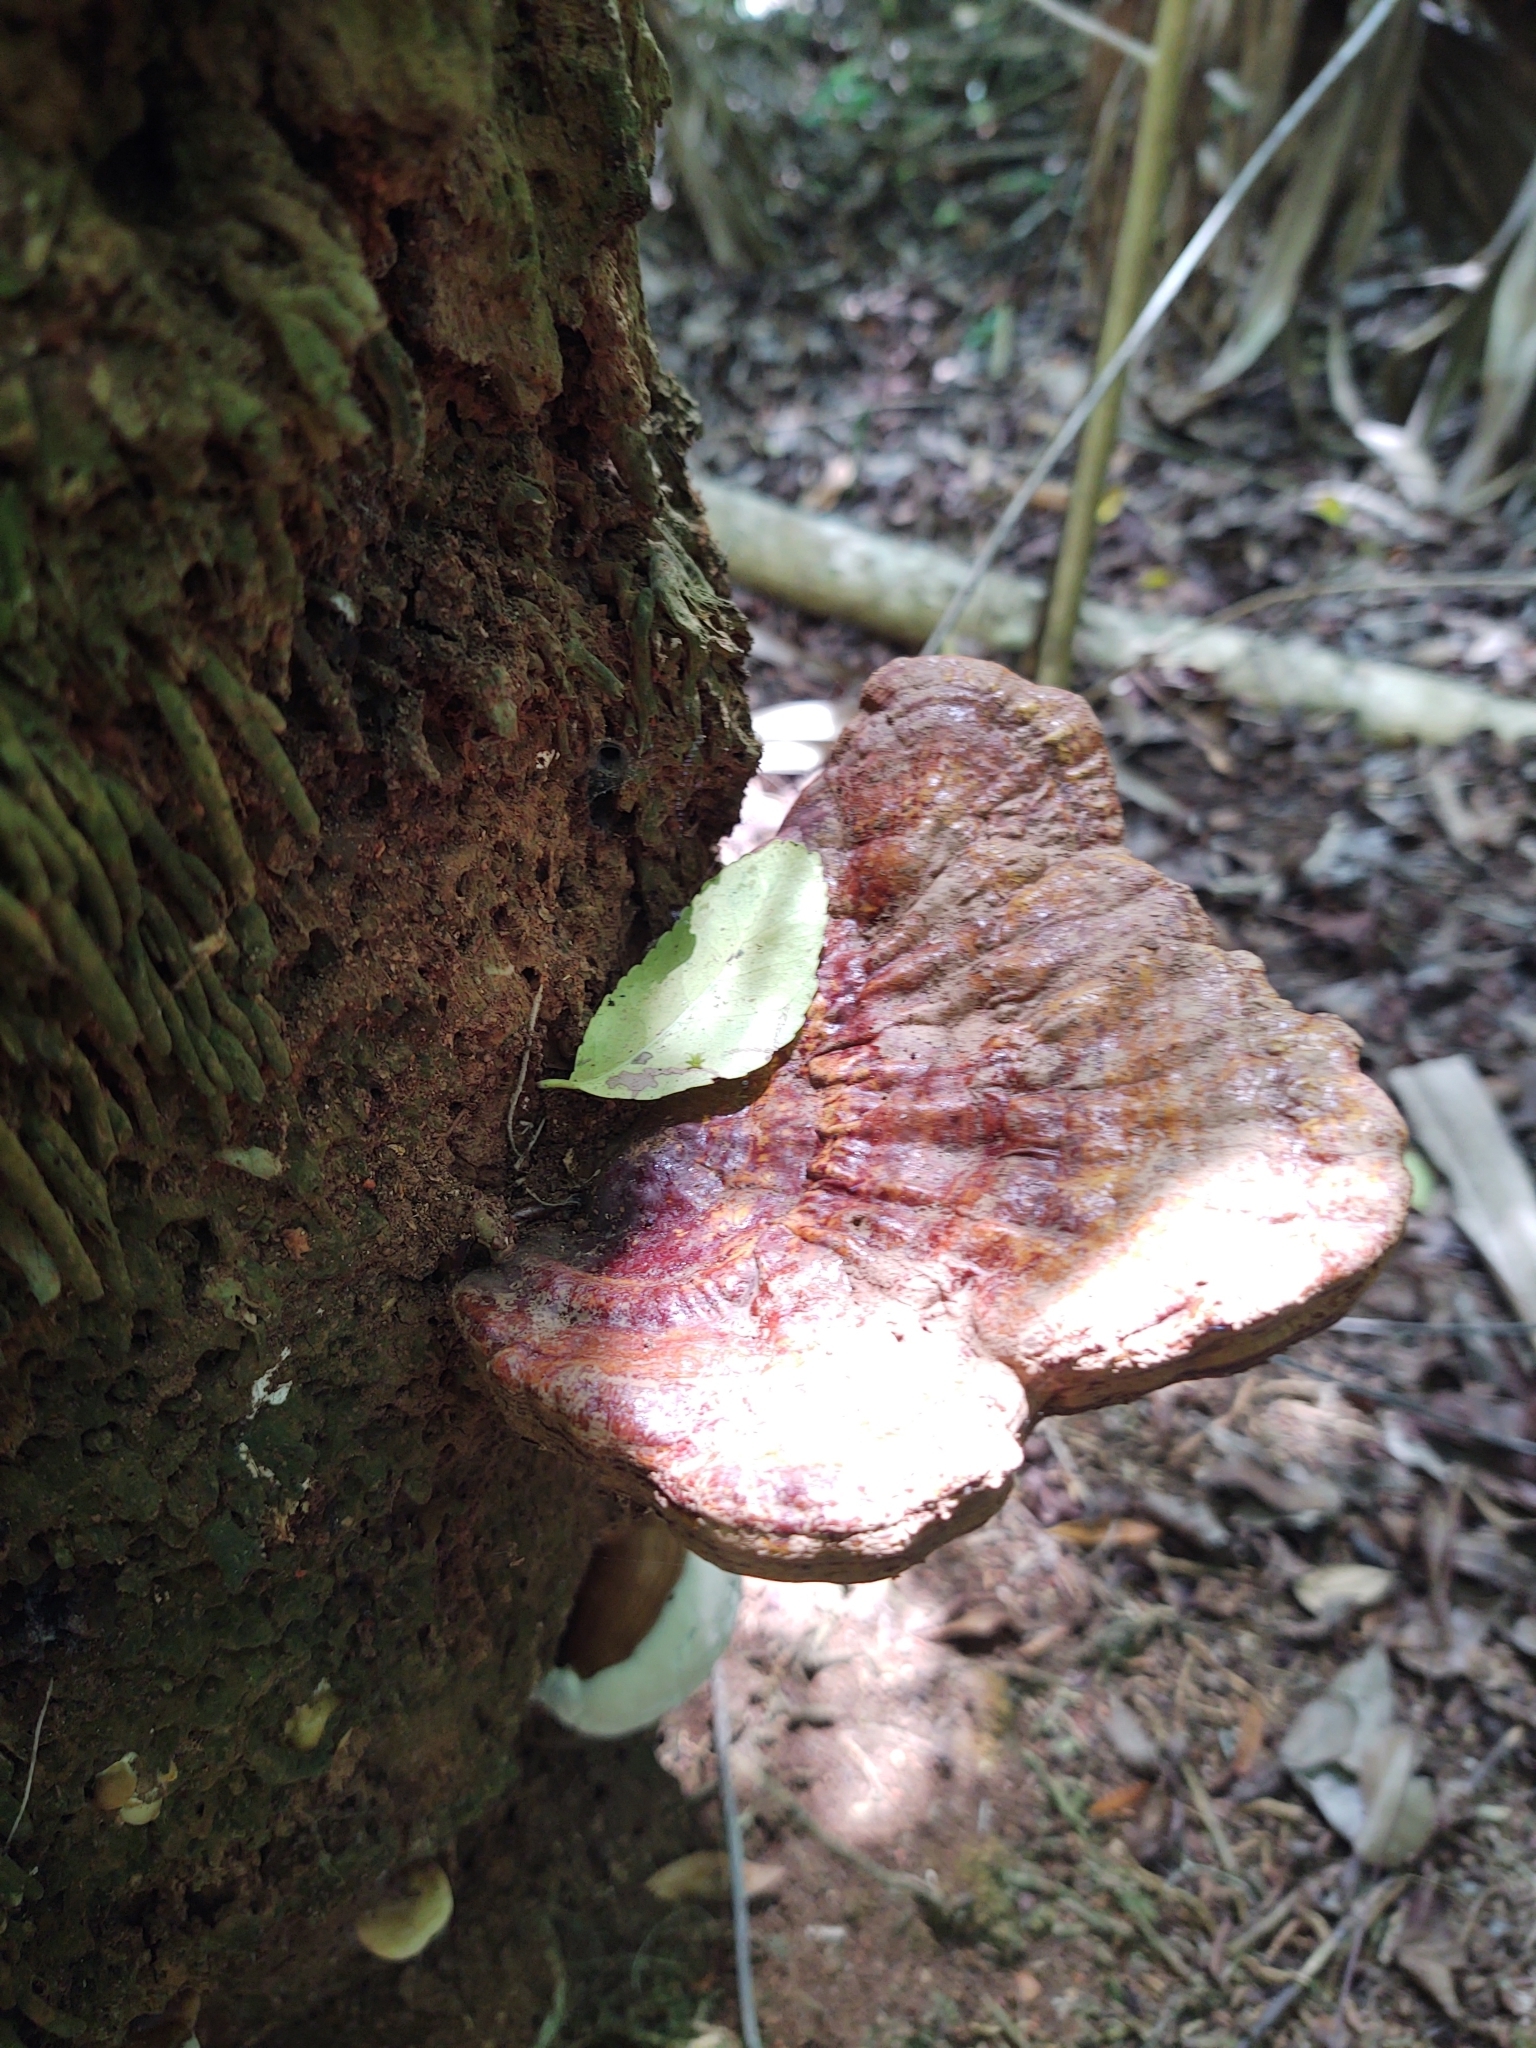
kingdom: Fungi
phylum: Basidiomycota
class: Agaricomycetes
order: Polyporales
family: Polyporaceae
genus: Ganoderma
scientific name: Ganoderma zonatum
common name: Ganoderma butt rot
